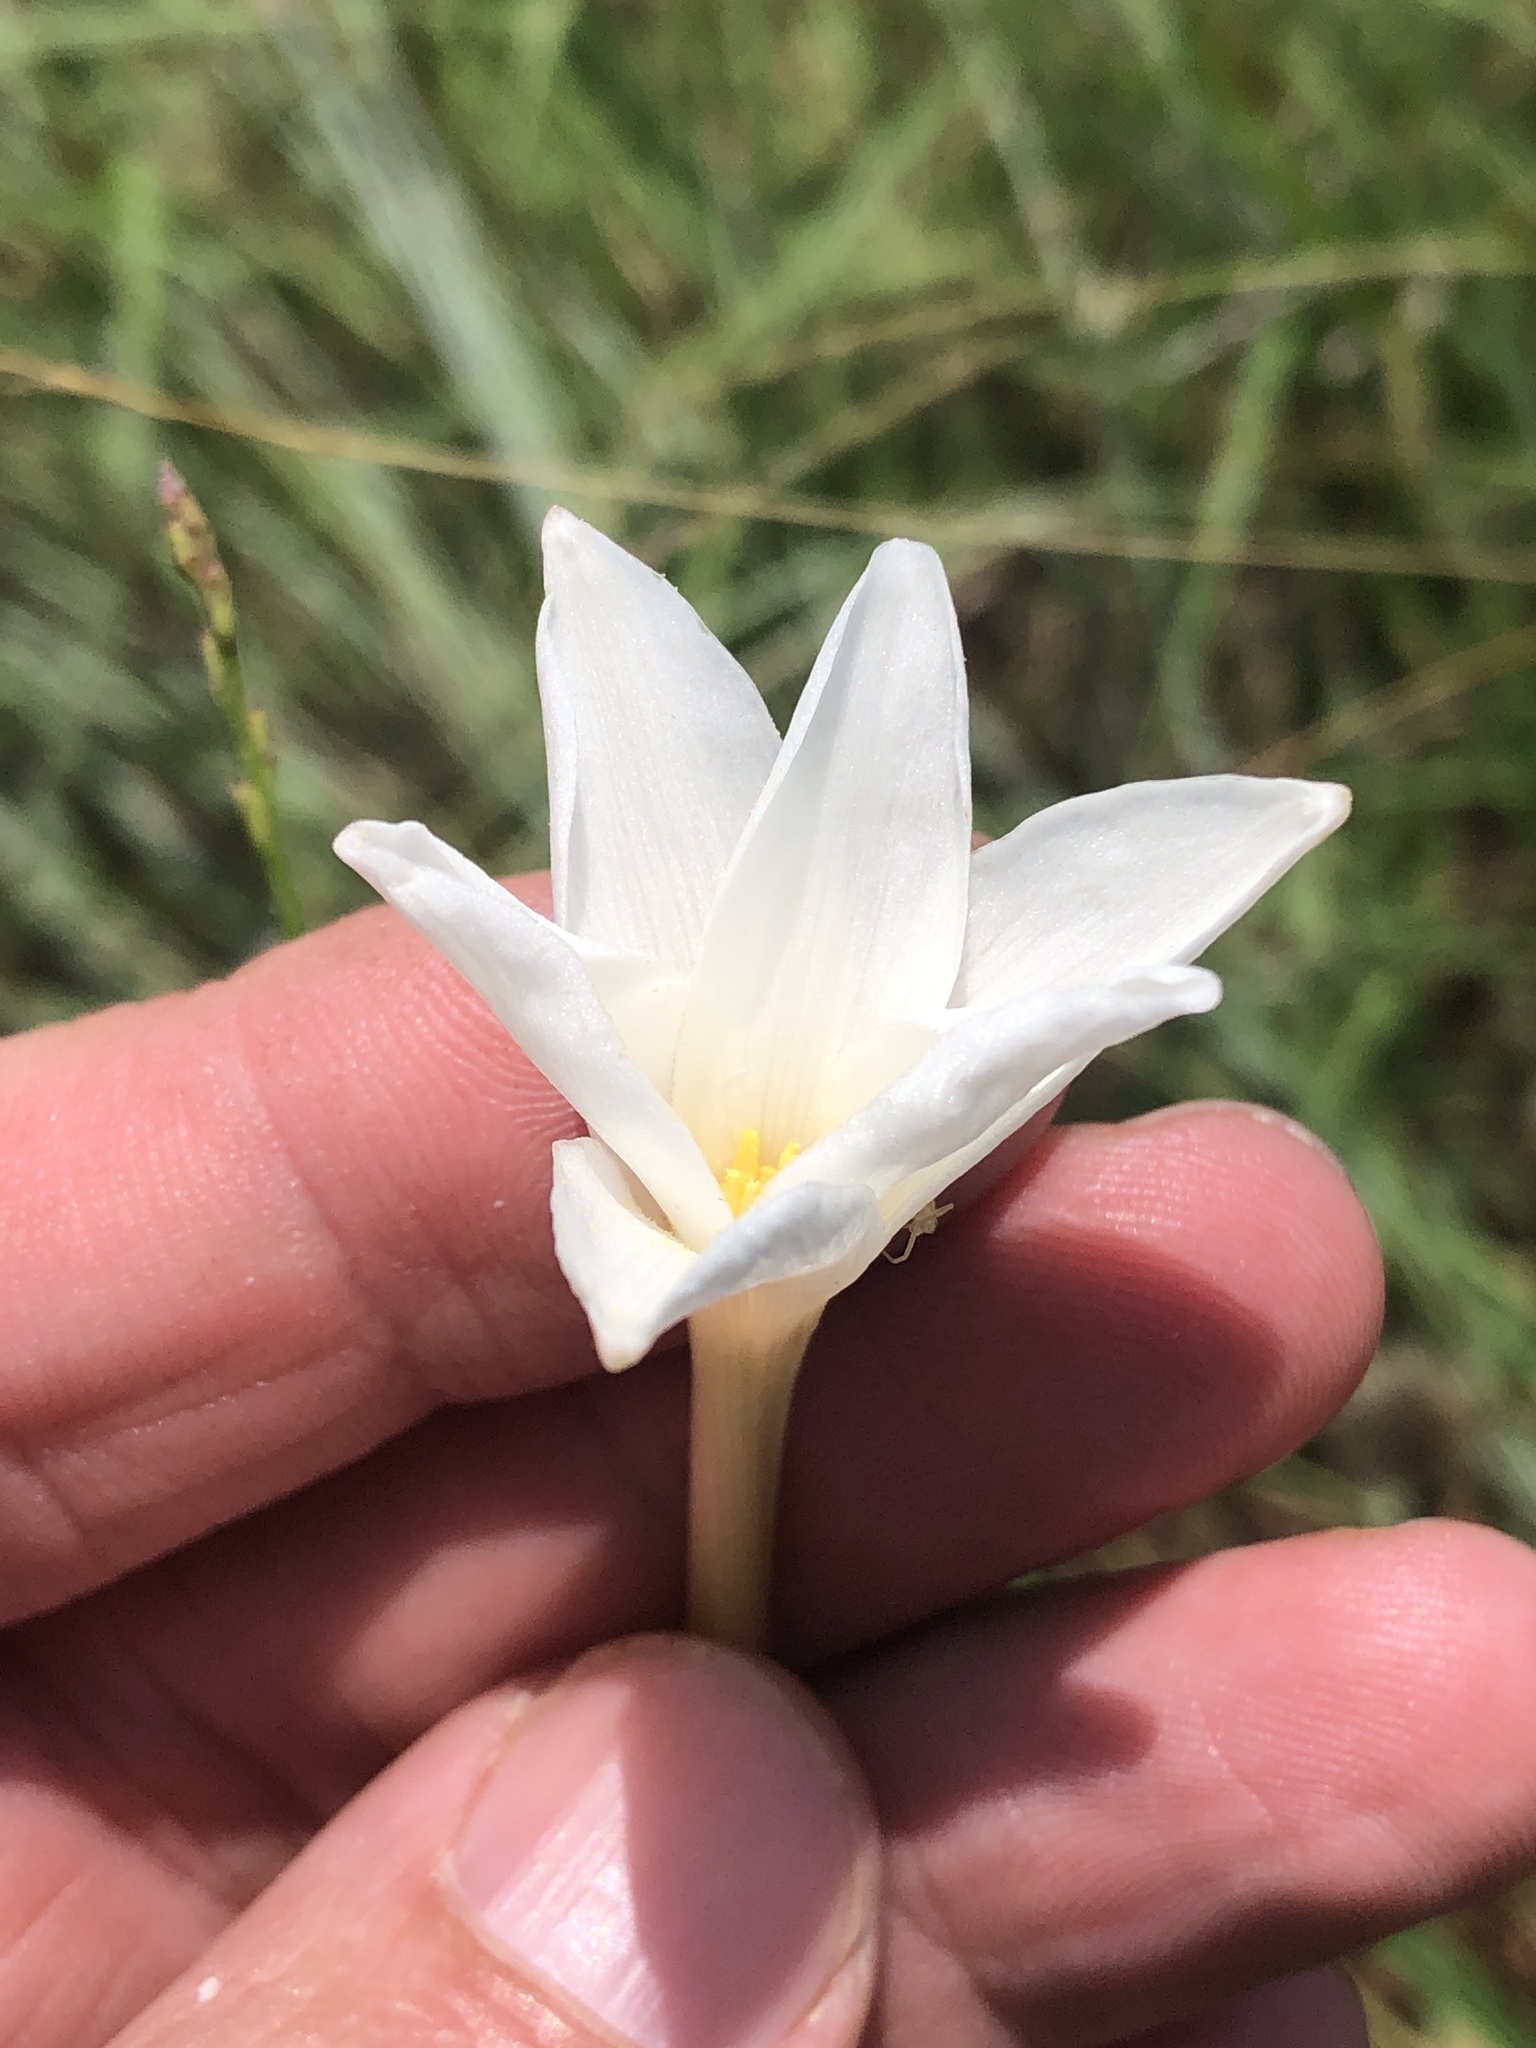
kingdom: Plantae
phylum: Tracheophyta
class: Liliopsida
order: Asparagales
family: Amaryllidaceae
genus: Zephyranthes
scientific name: Zephyranthes chlorosolen
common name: Evening rain-lily
